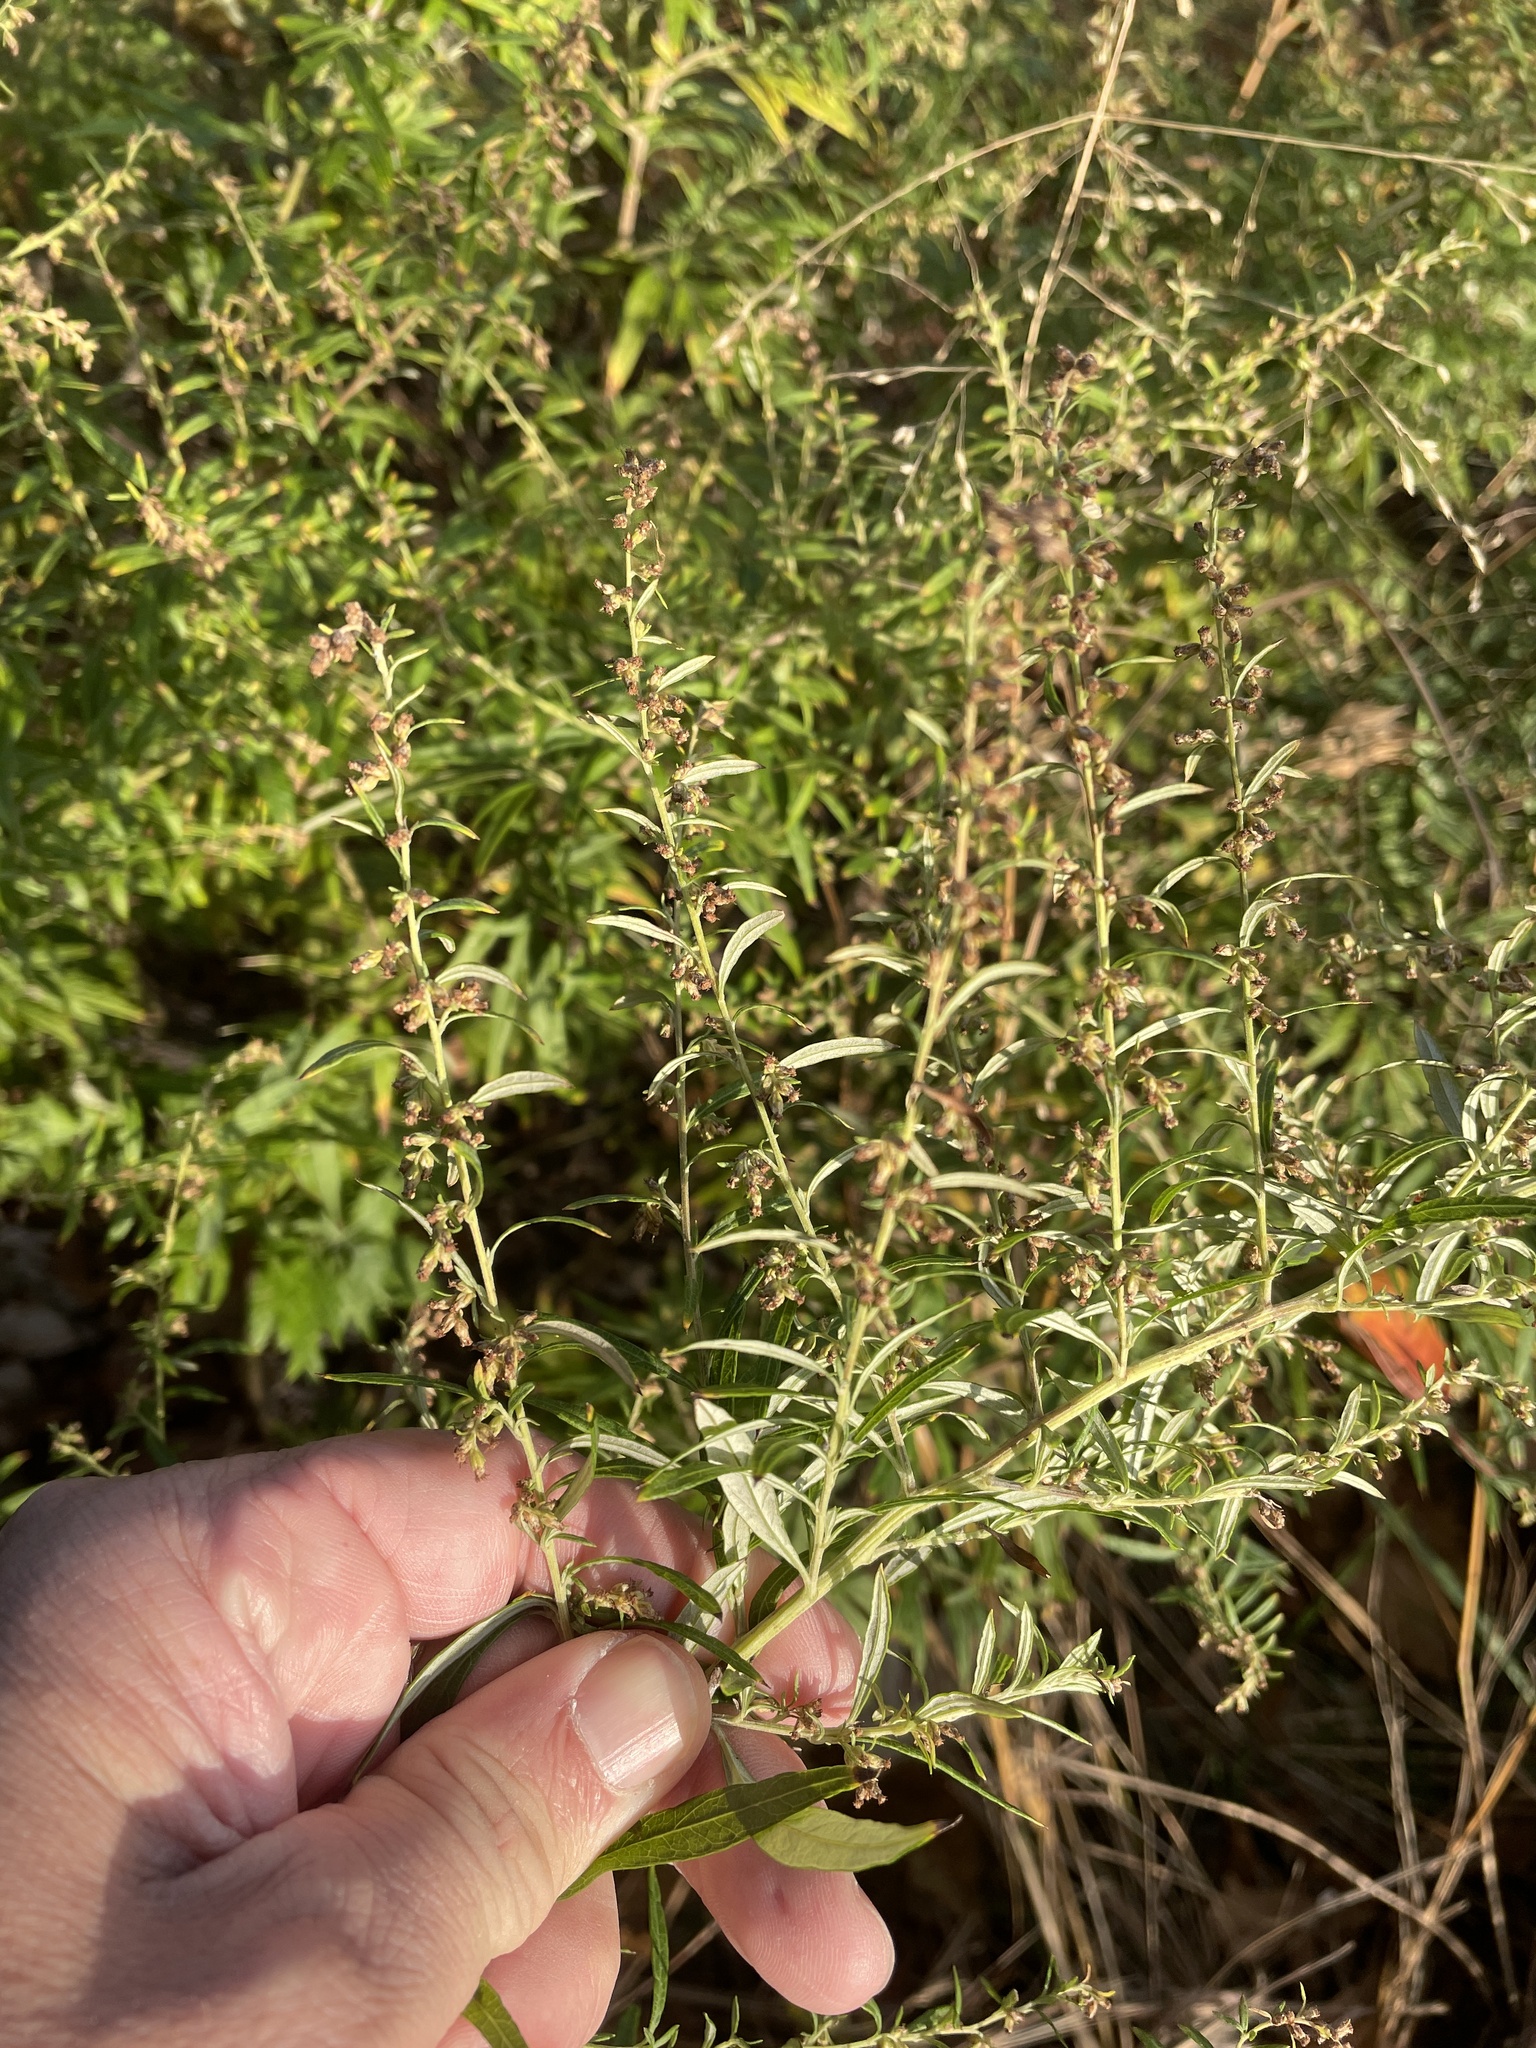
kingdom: Plantae
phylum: Tracheophyta
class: Magnoliopsida
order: Asterales
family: Asteraceae
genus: Artemisia
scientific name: Artemisia vulgaris
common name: Mugwort
